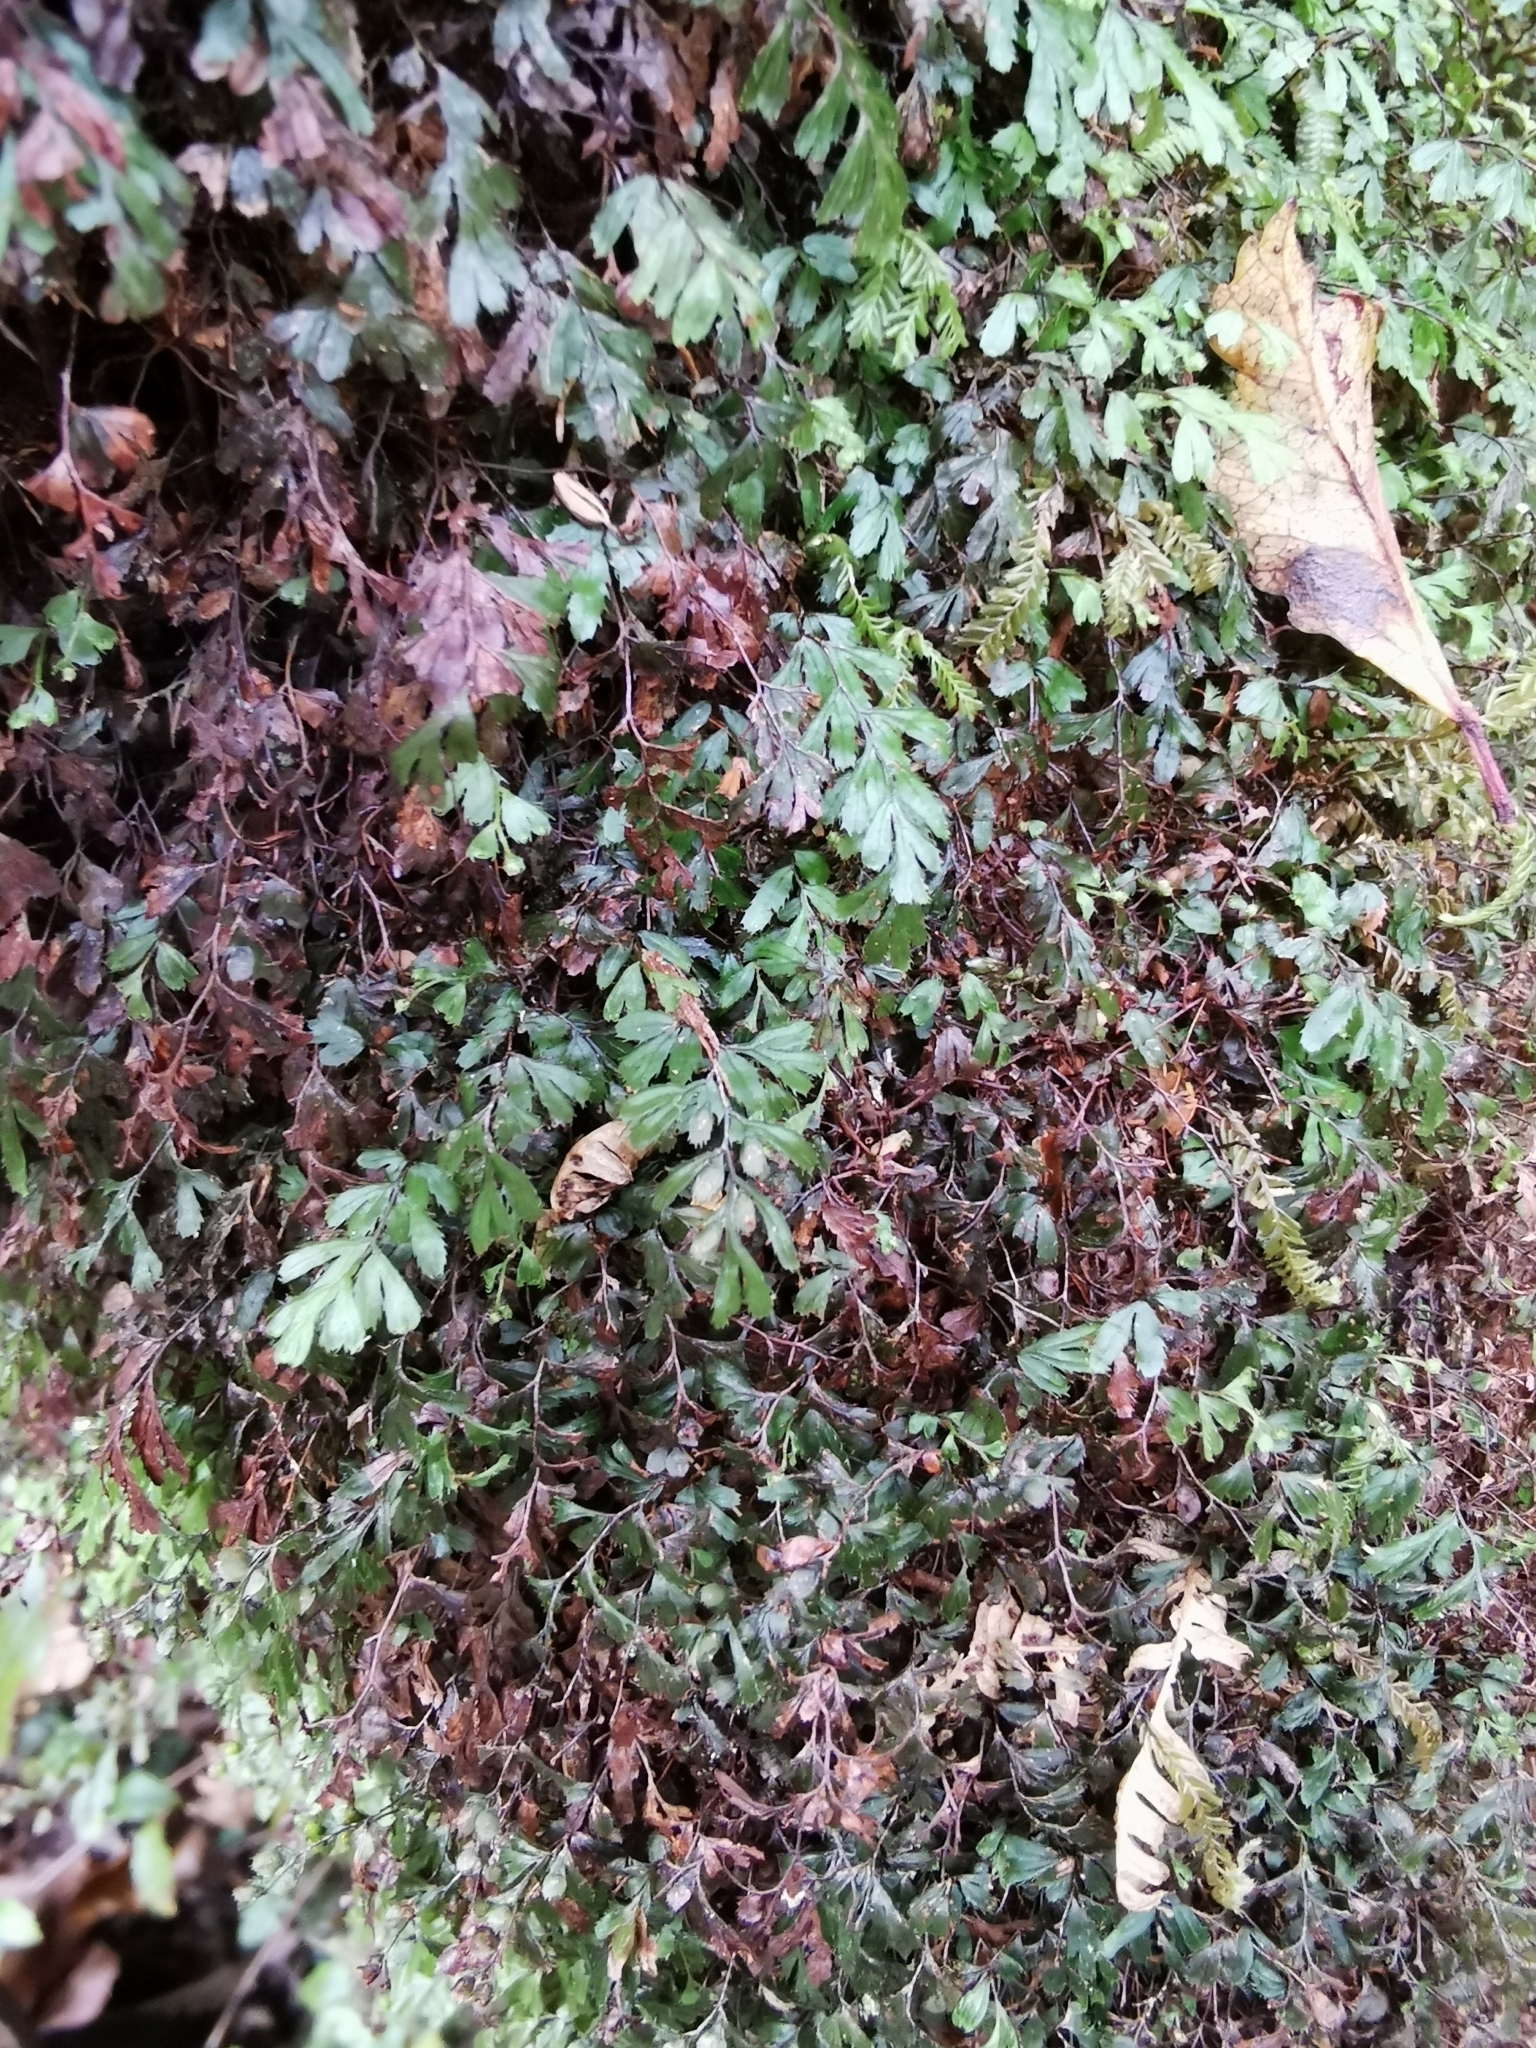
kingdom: Plantae
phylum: Tracheophyta
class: Polypodiopsida
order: Hymenophyllales
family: Hymenophyllaceae
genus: Hymenophyllum
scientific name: Hymenophyllum revolutum
